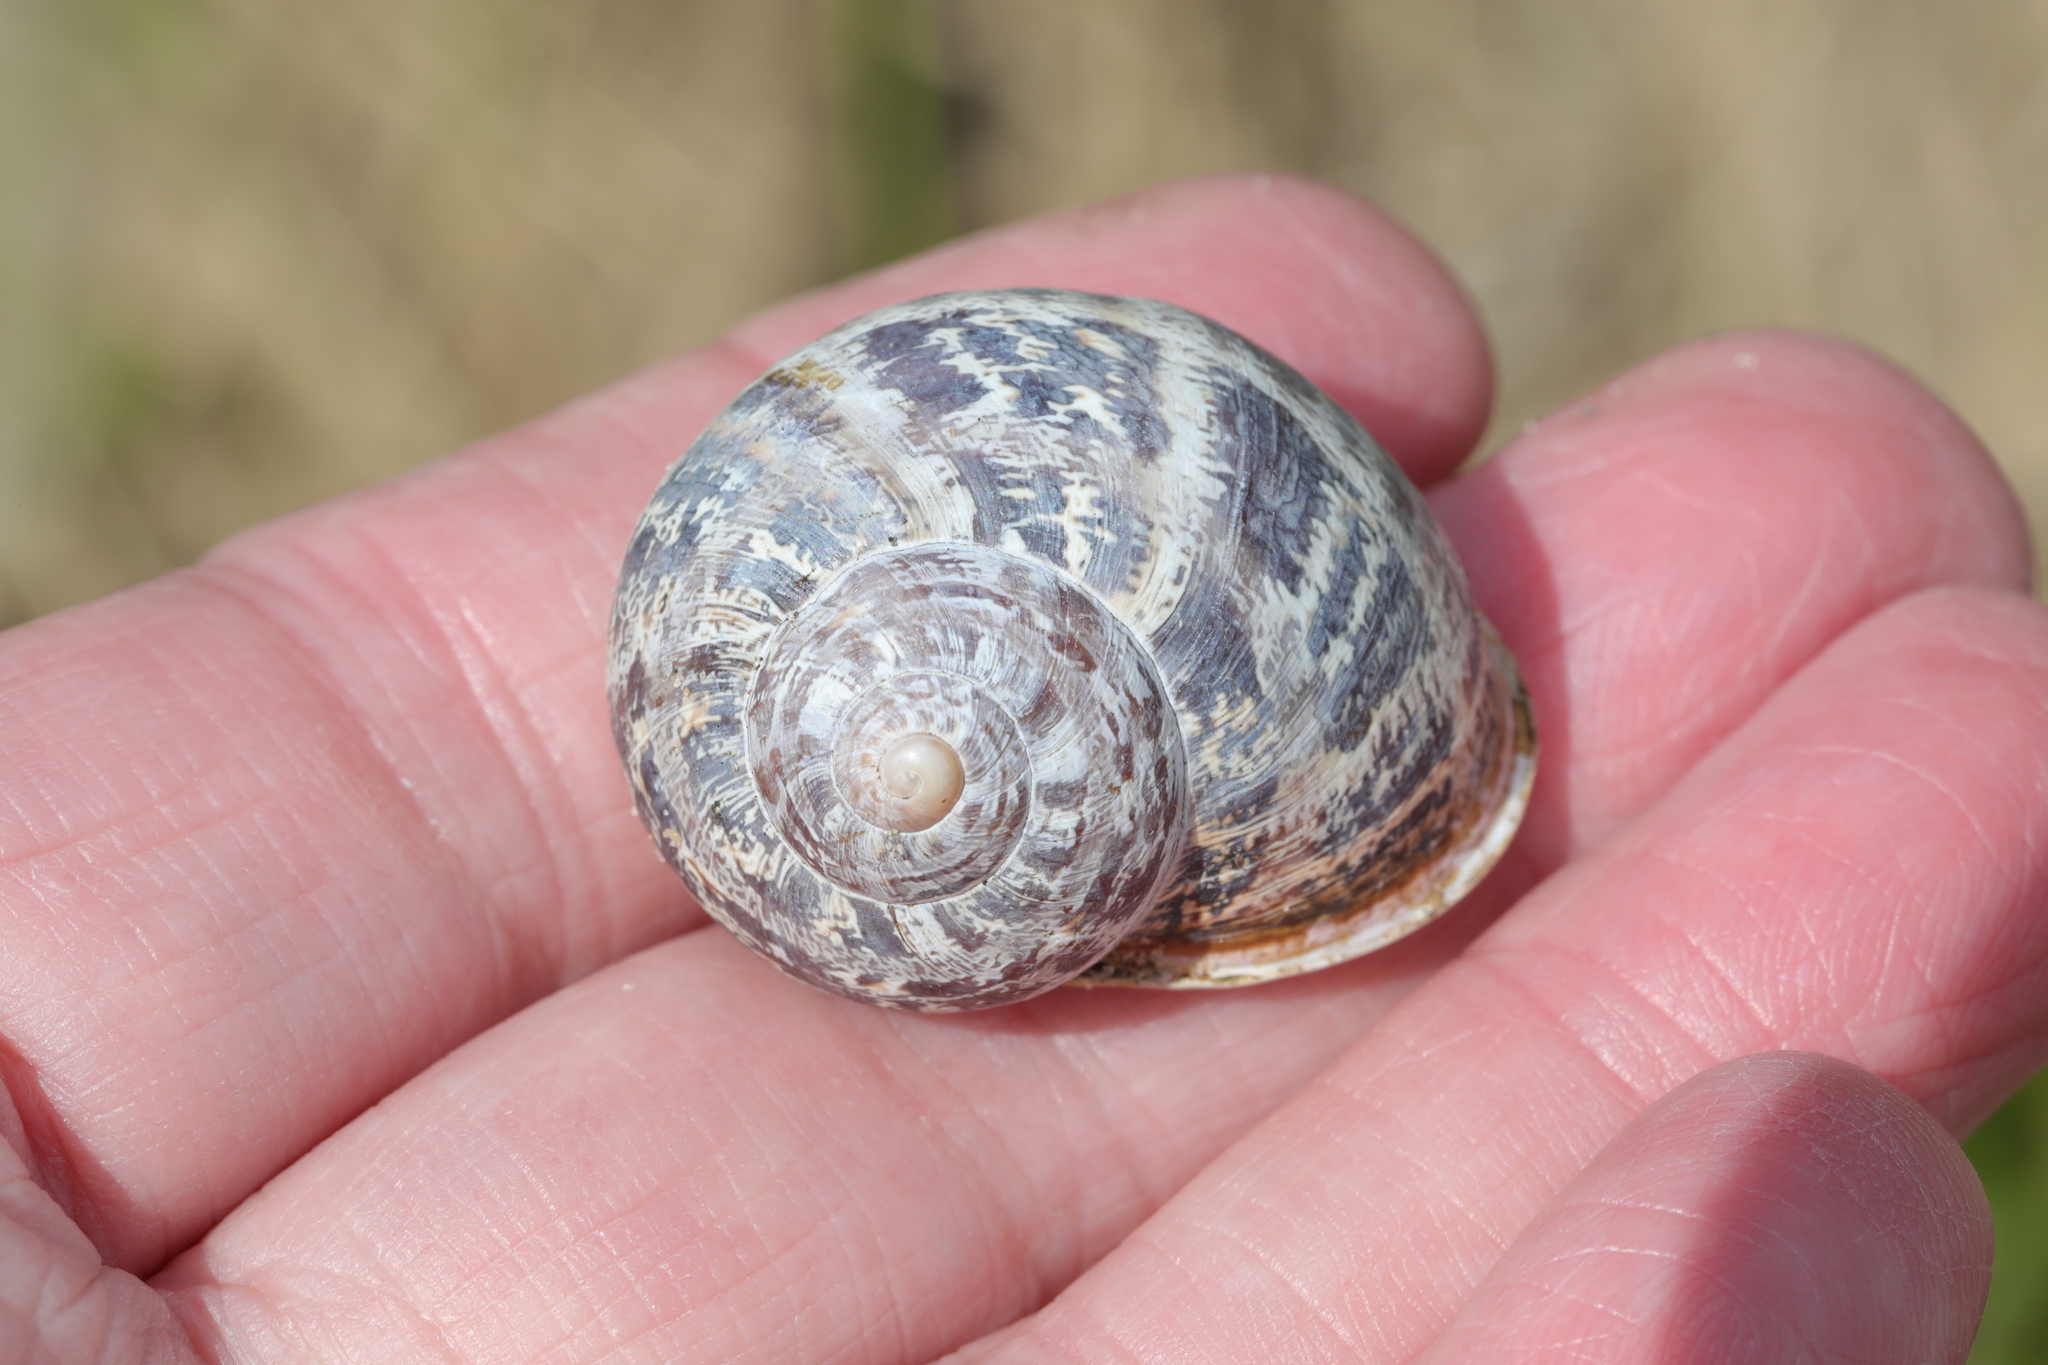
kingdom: Animalia
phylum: Mollusca
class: Gastropoda
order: Stylommatophora
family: Helicidae
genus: Cornu
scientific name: Cornu aspersum
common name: Brown garden snail
